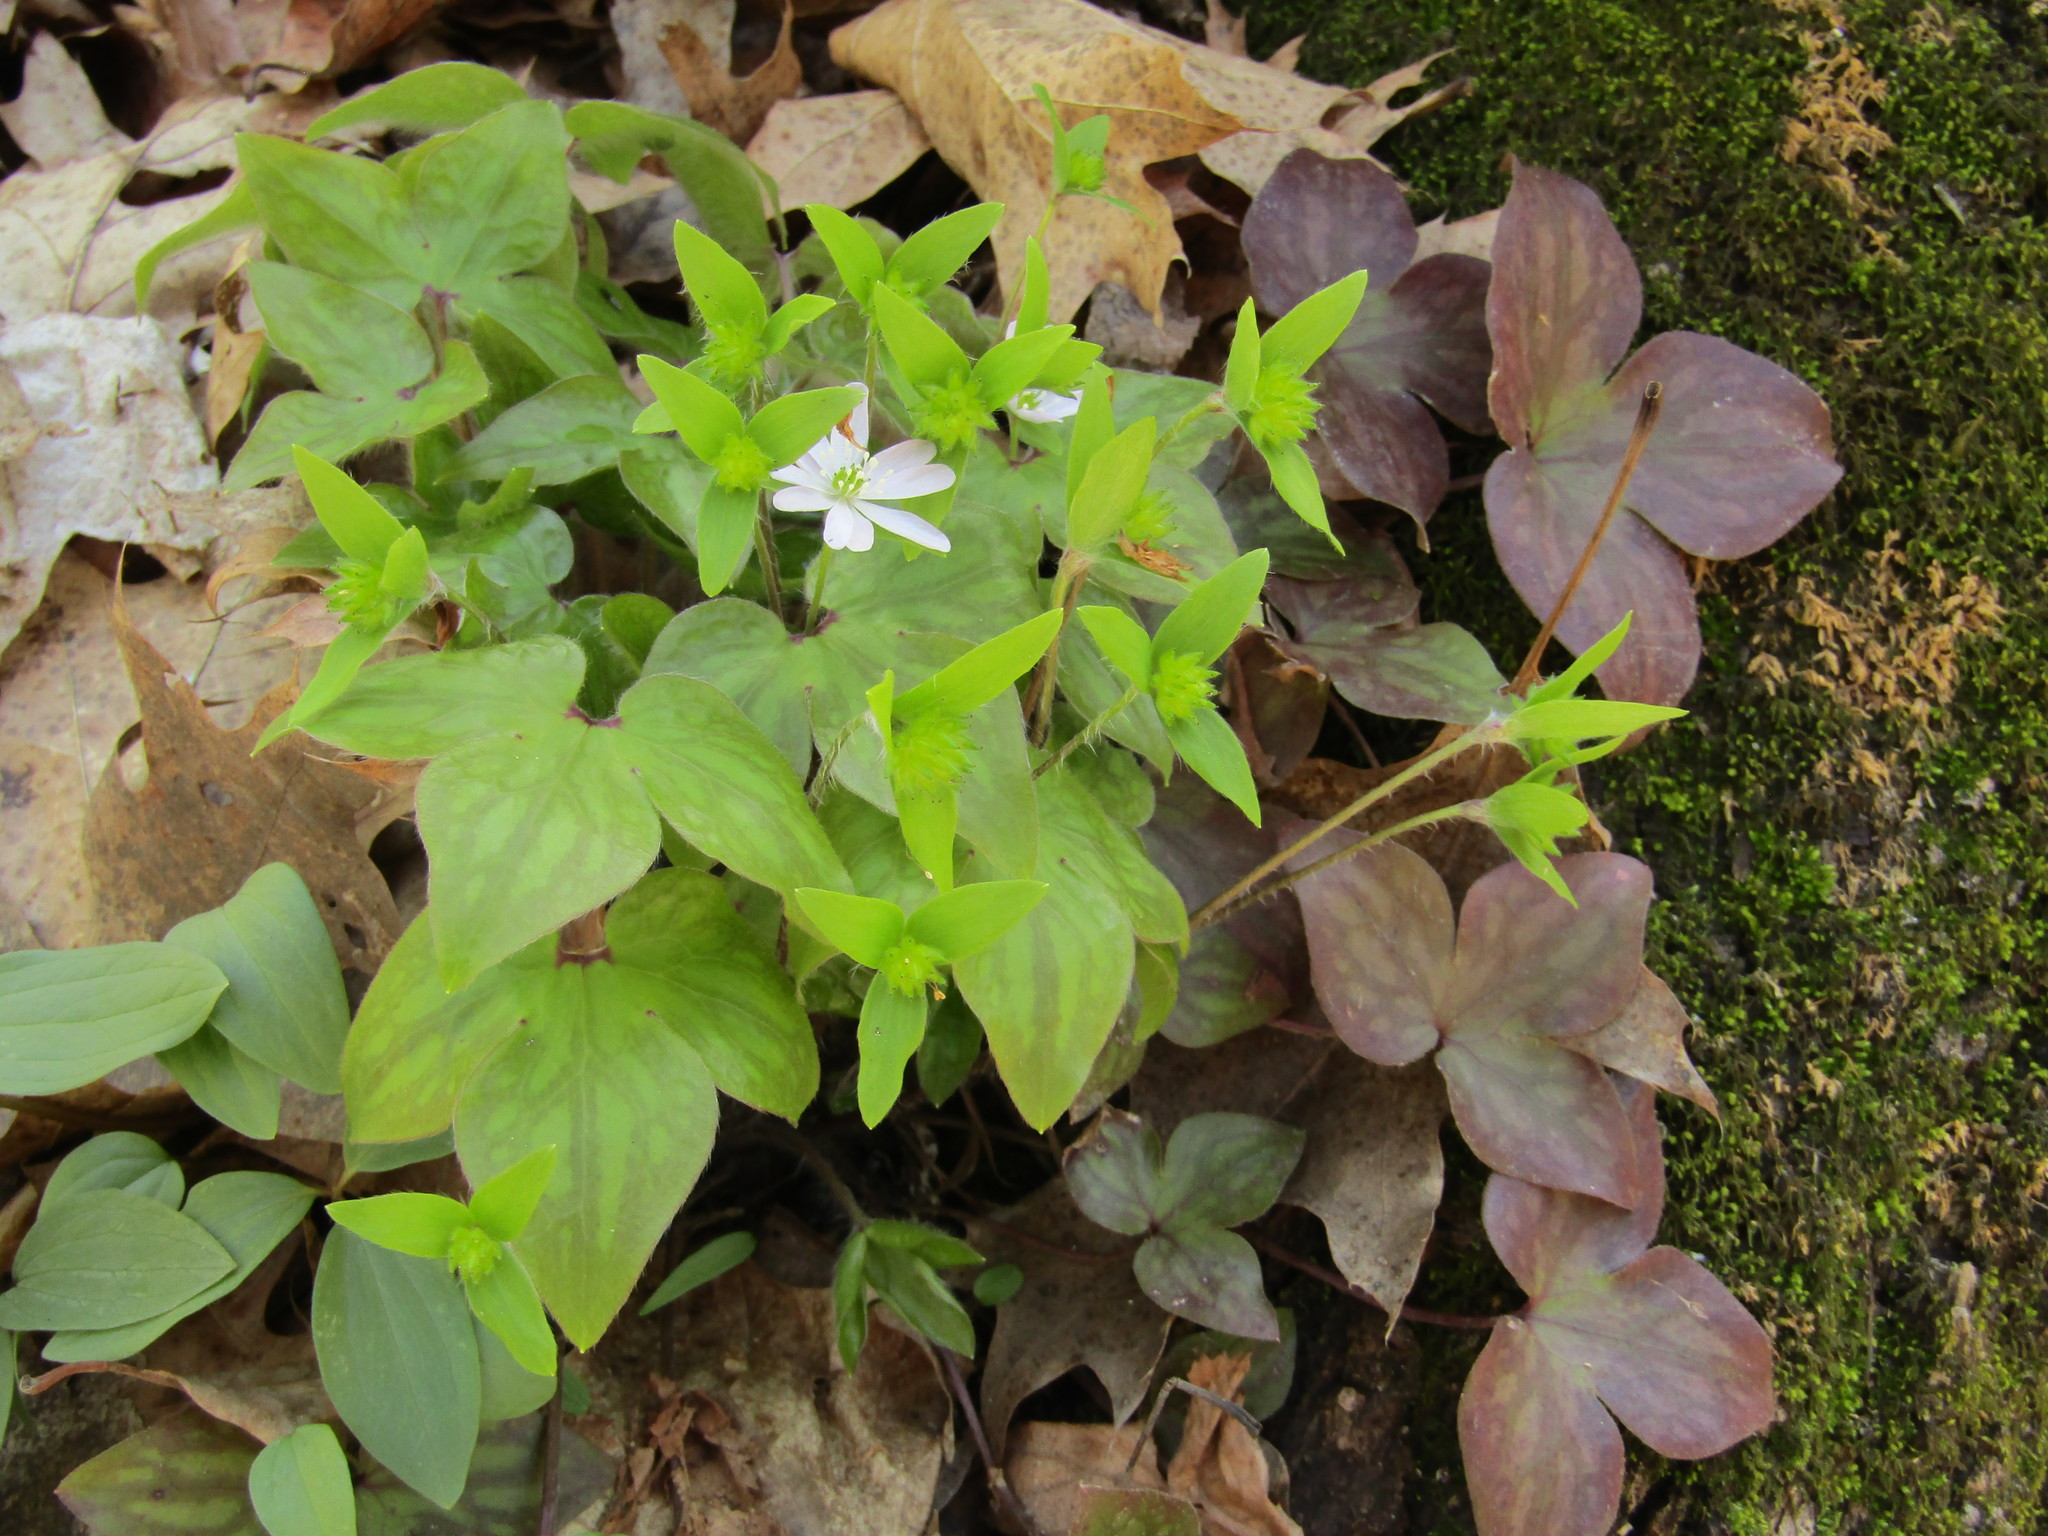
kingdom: Plantae
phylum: Tracheophyta
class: Magnoliopsida
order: Ranunculales
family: Ranunculaceae
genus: Hepatica
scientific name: Hepatica acutiloba
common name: Sharp-lobed hepatica
